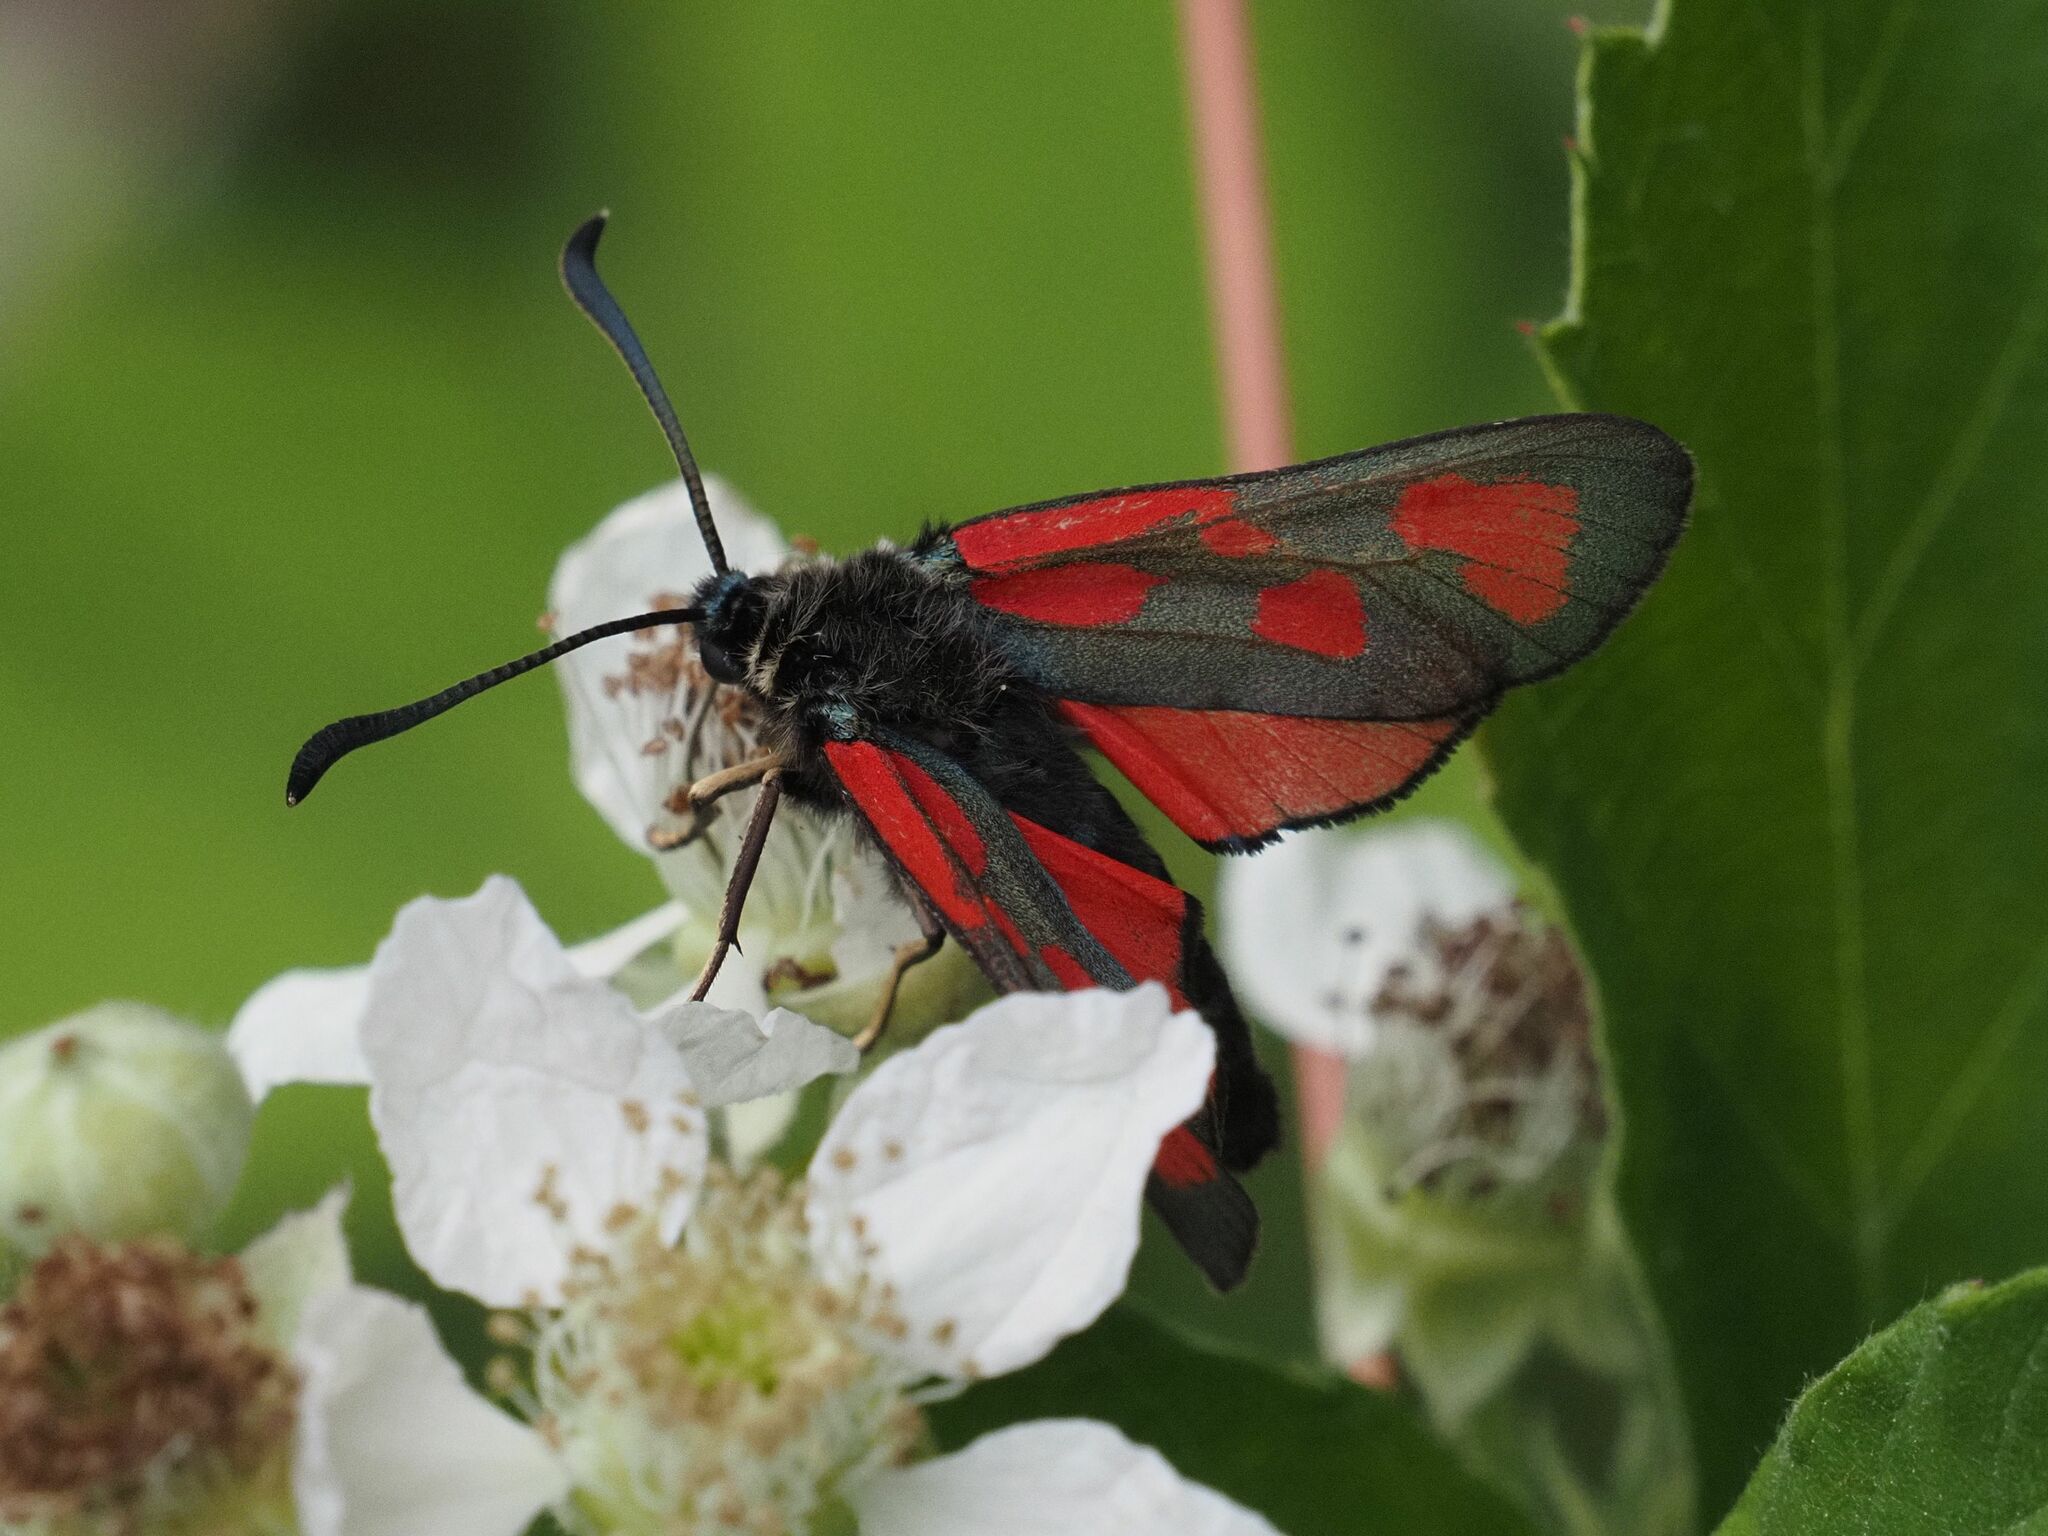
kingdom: Animalia
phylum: Arthropoda
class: Insecta
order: Lepidoptera
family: Zygaenidae
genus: Zygaena
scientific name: Zygaena loti
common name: Slender scotch burnet
